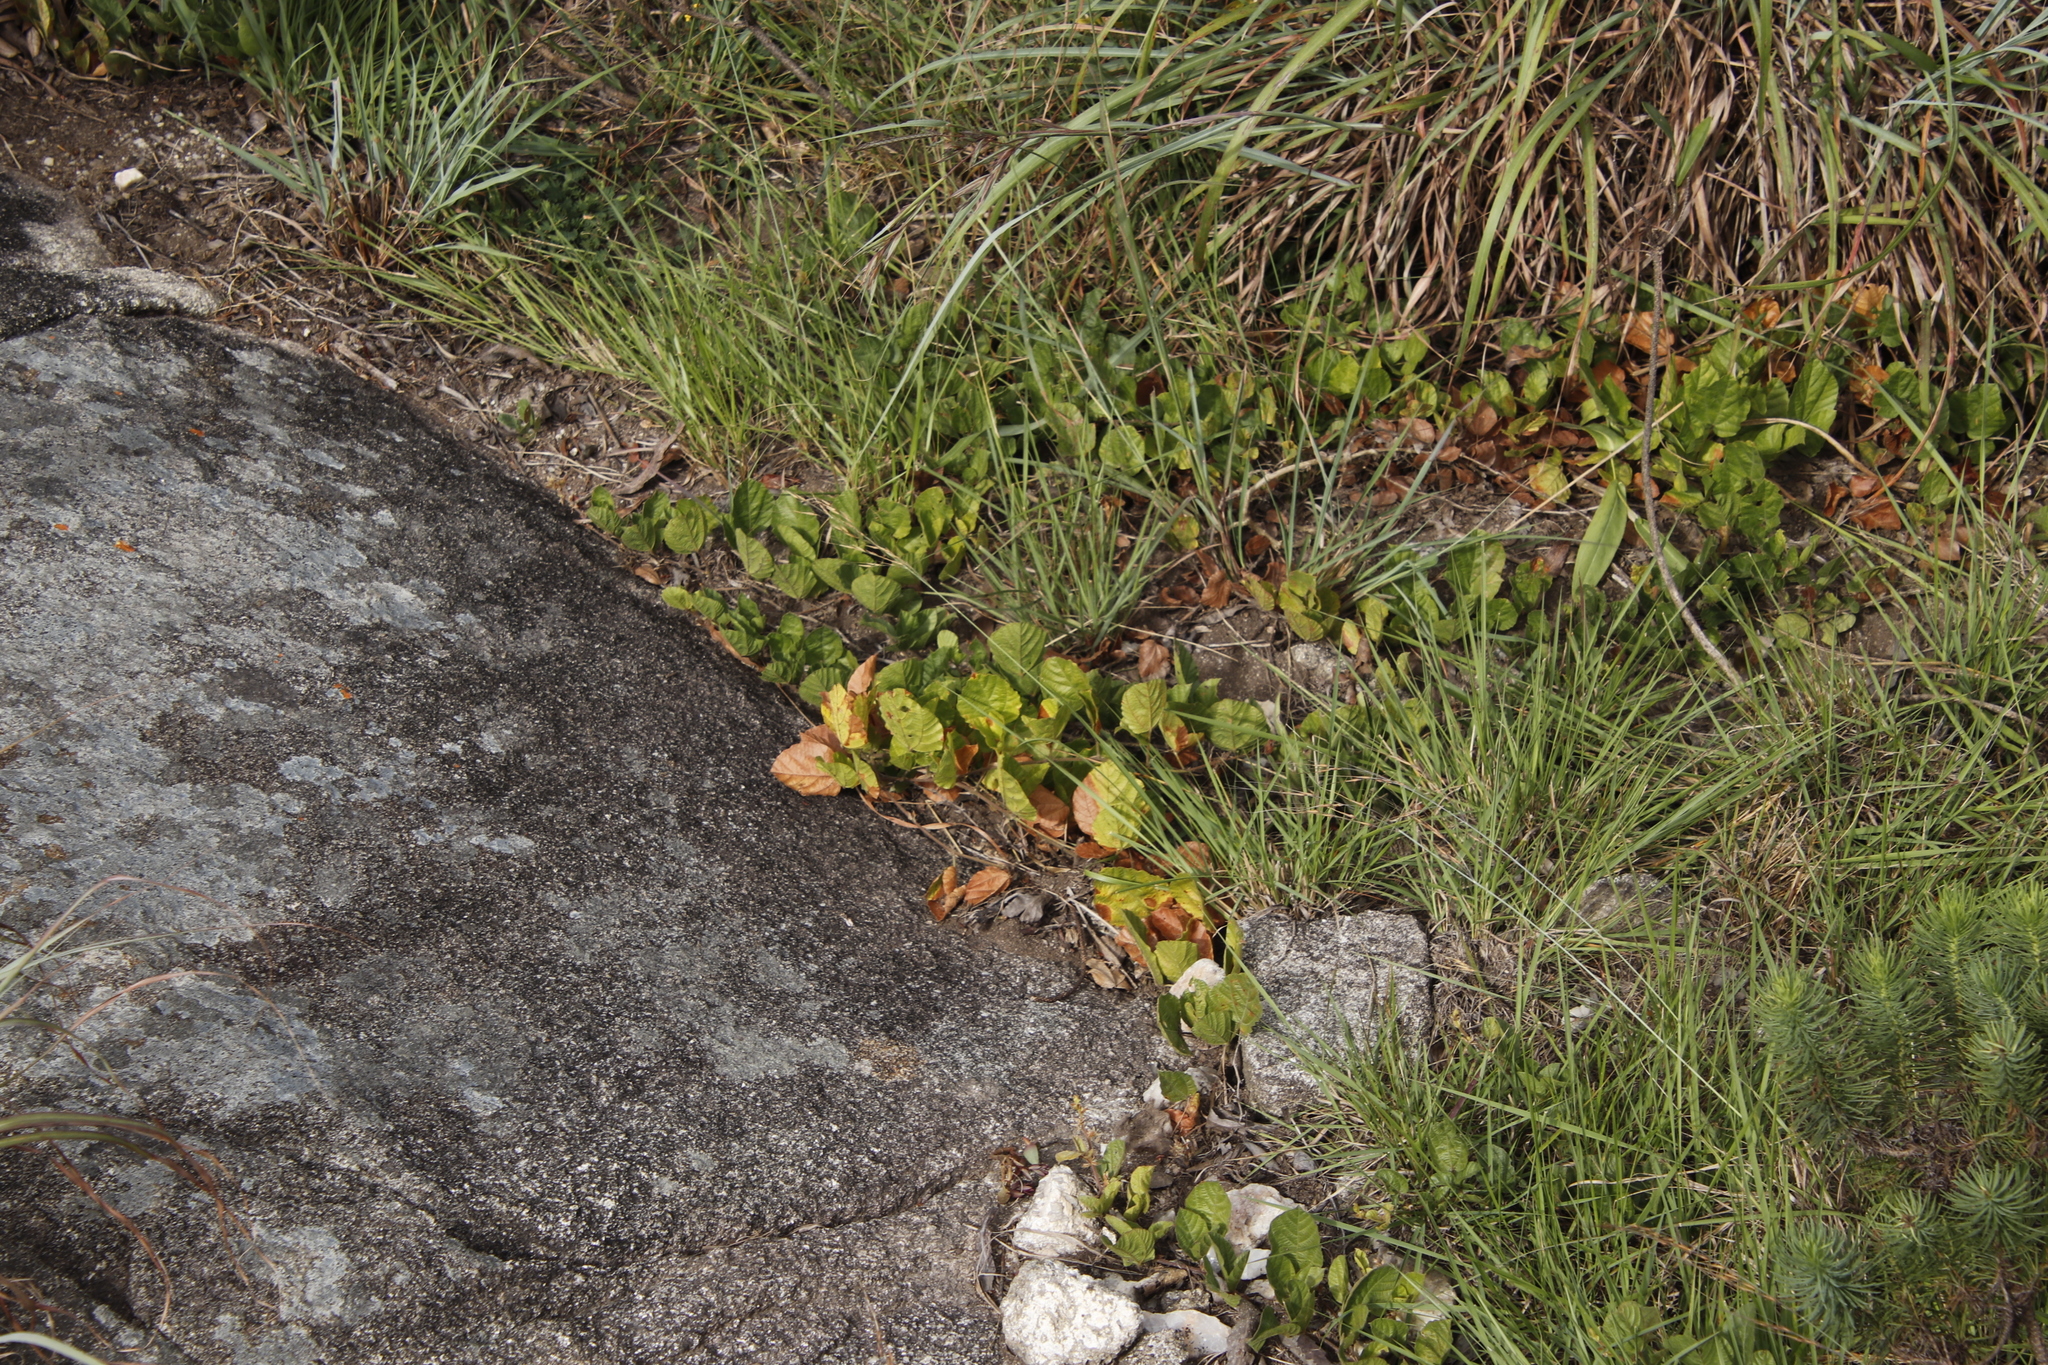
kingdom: Plantae
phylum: Tracheophyta
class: Magnoliopsida
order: Fabales
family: Fabaceae
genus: Rhynchosia
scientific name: Rhynchosia monophylla
